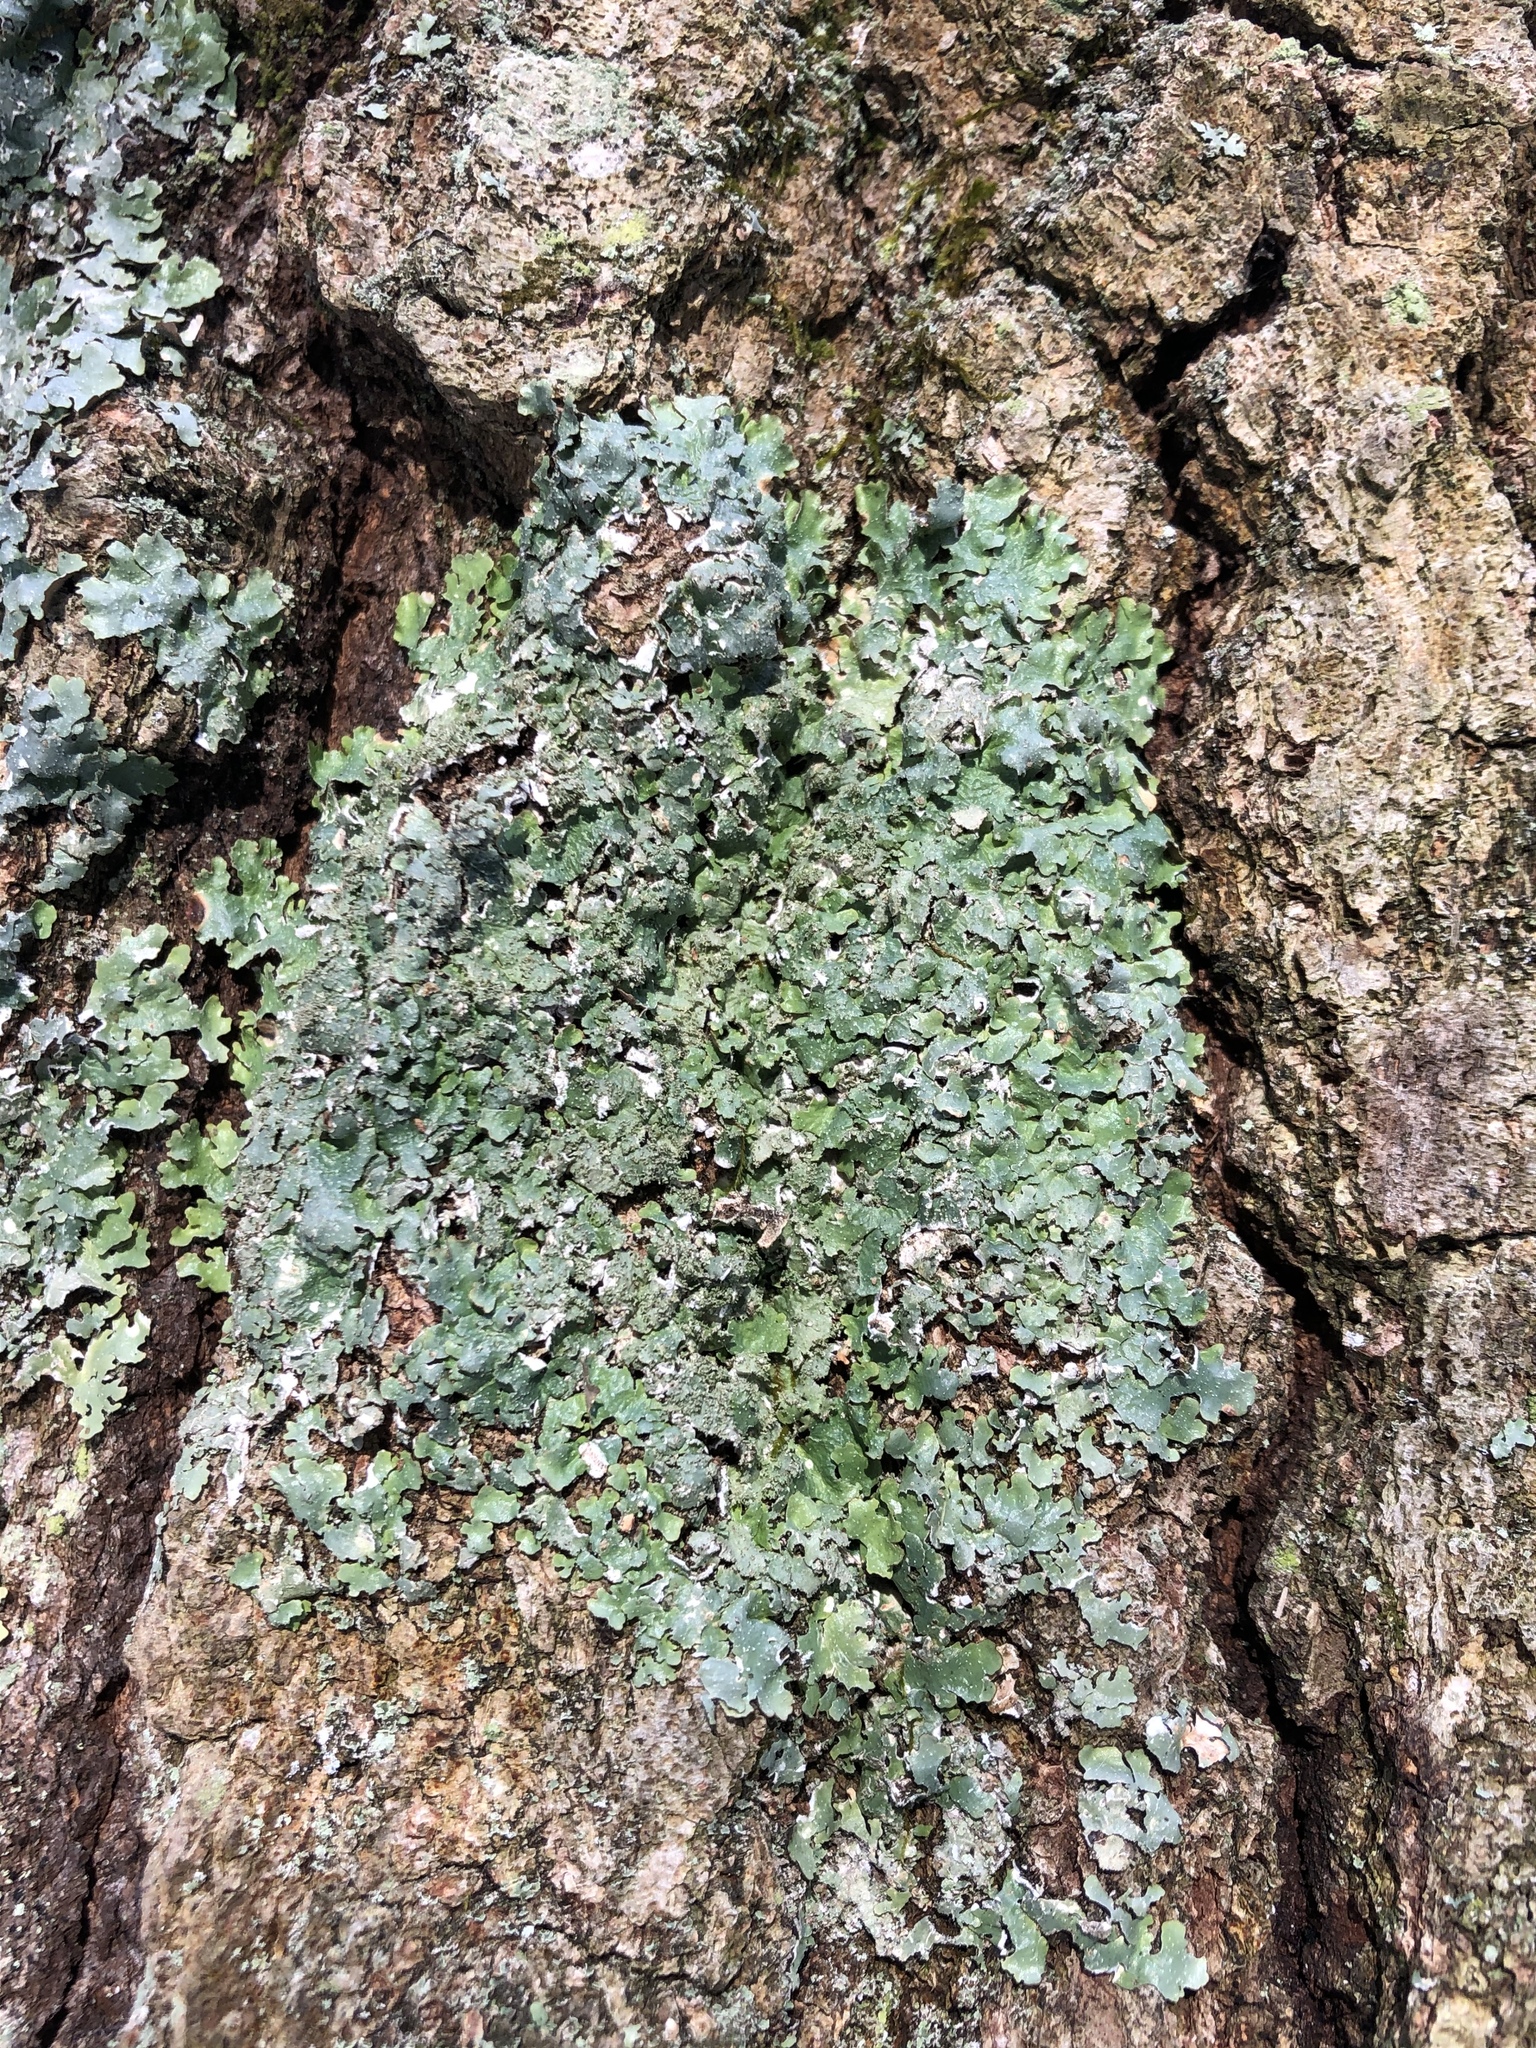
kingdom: Fungi
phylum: Ascomycota
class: Lecanoromycetes
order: Lecanorales
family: Parmeliaceae
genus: Punctelia
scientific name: Punctelia rudecta
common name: Rough speckled shield lichen
